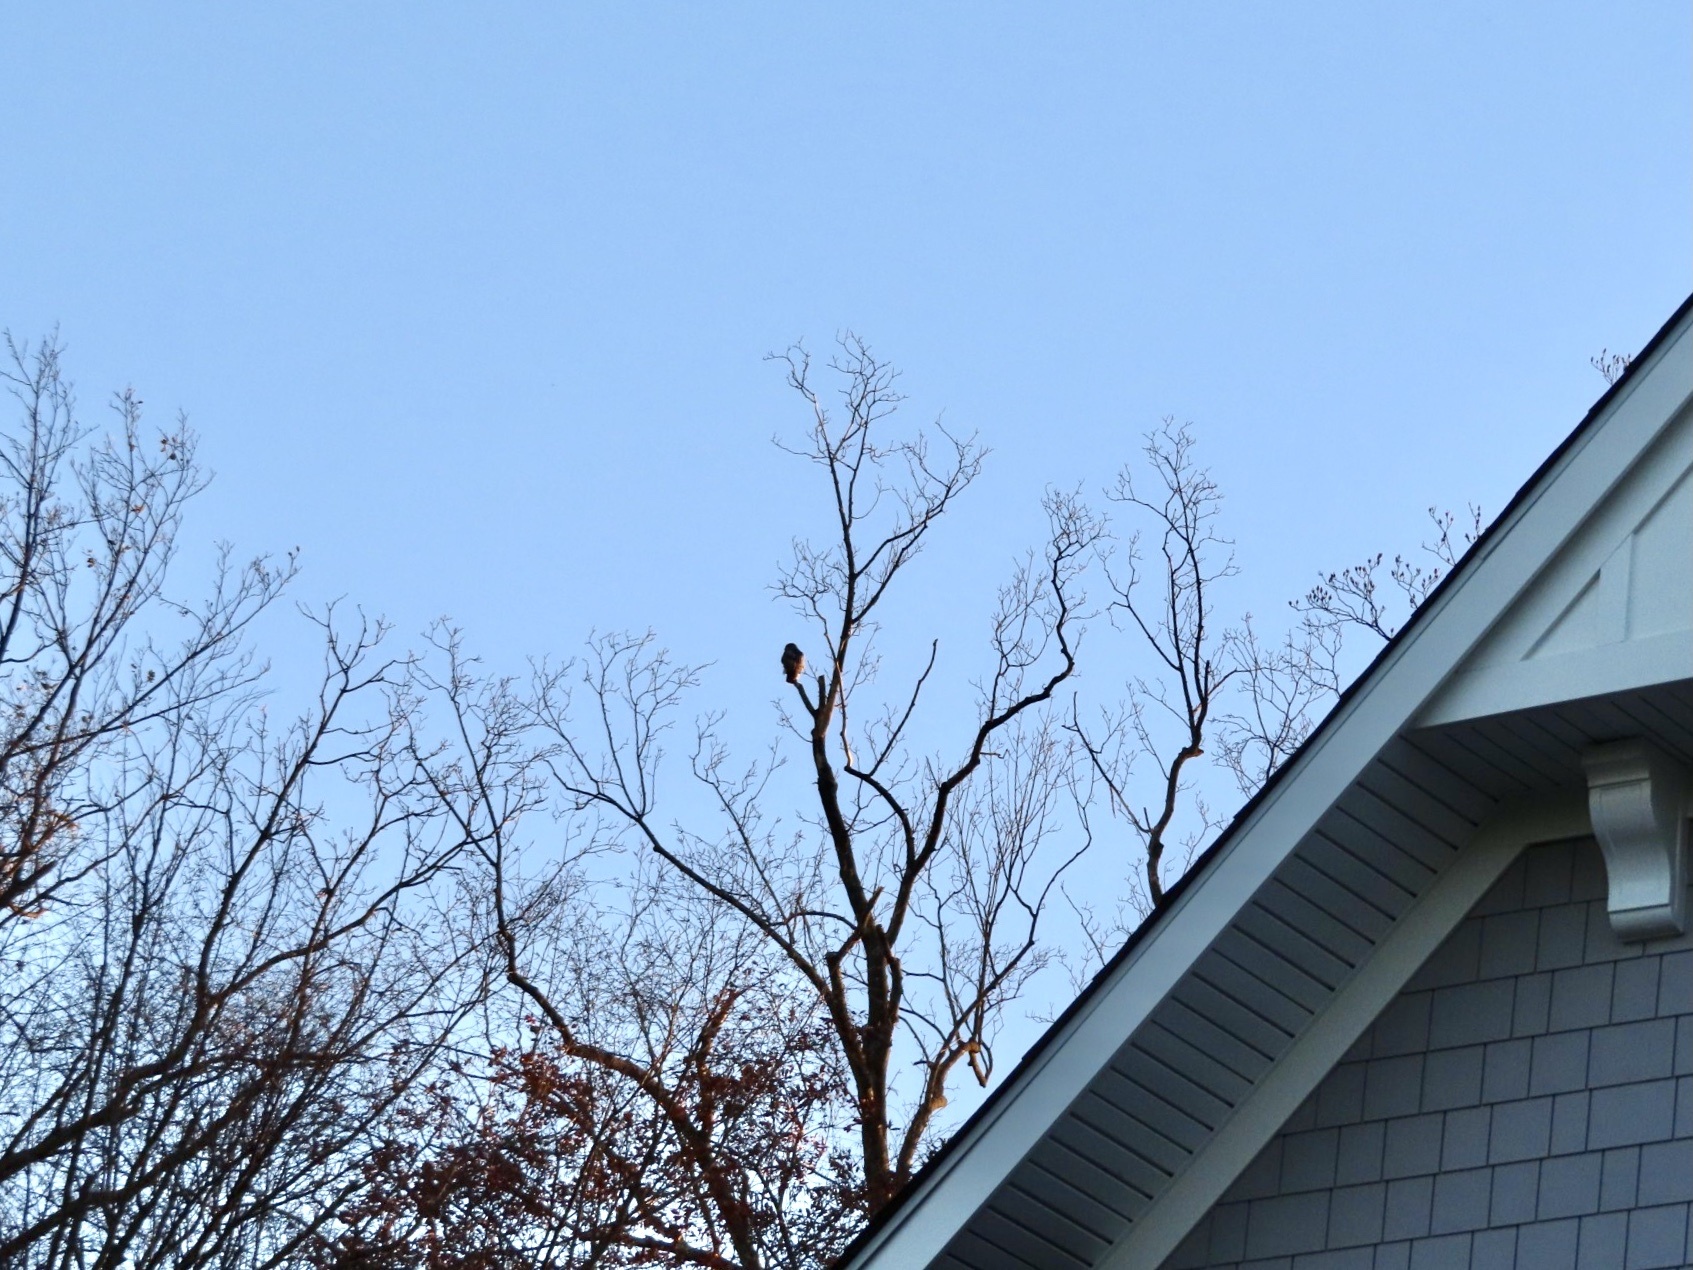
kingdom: Animalia
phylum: Chordata
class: Aves
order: Accipitriformes
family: Accipitridae
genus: Buteo
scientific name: Buteo jamaicensis
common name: Red-tailed hawk
